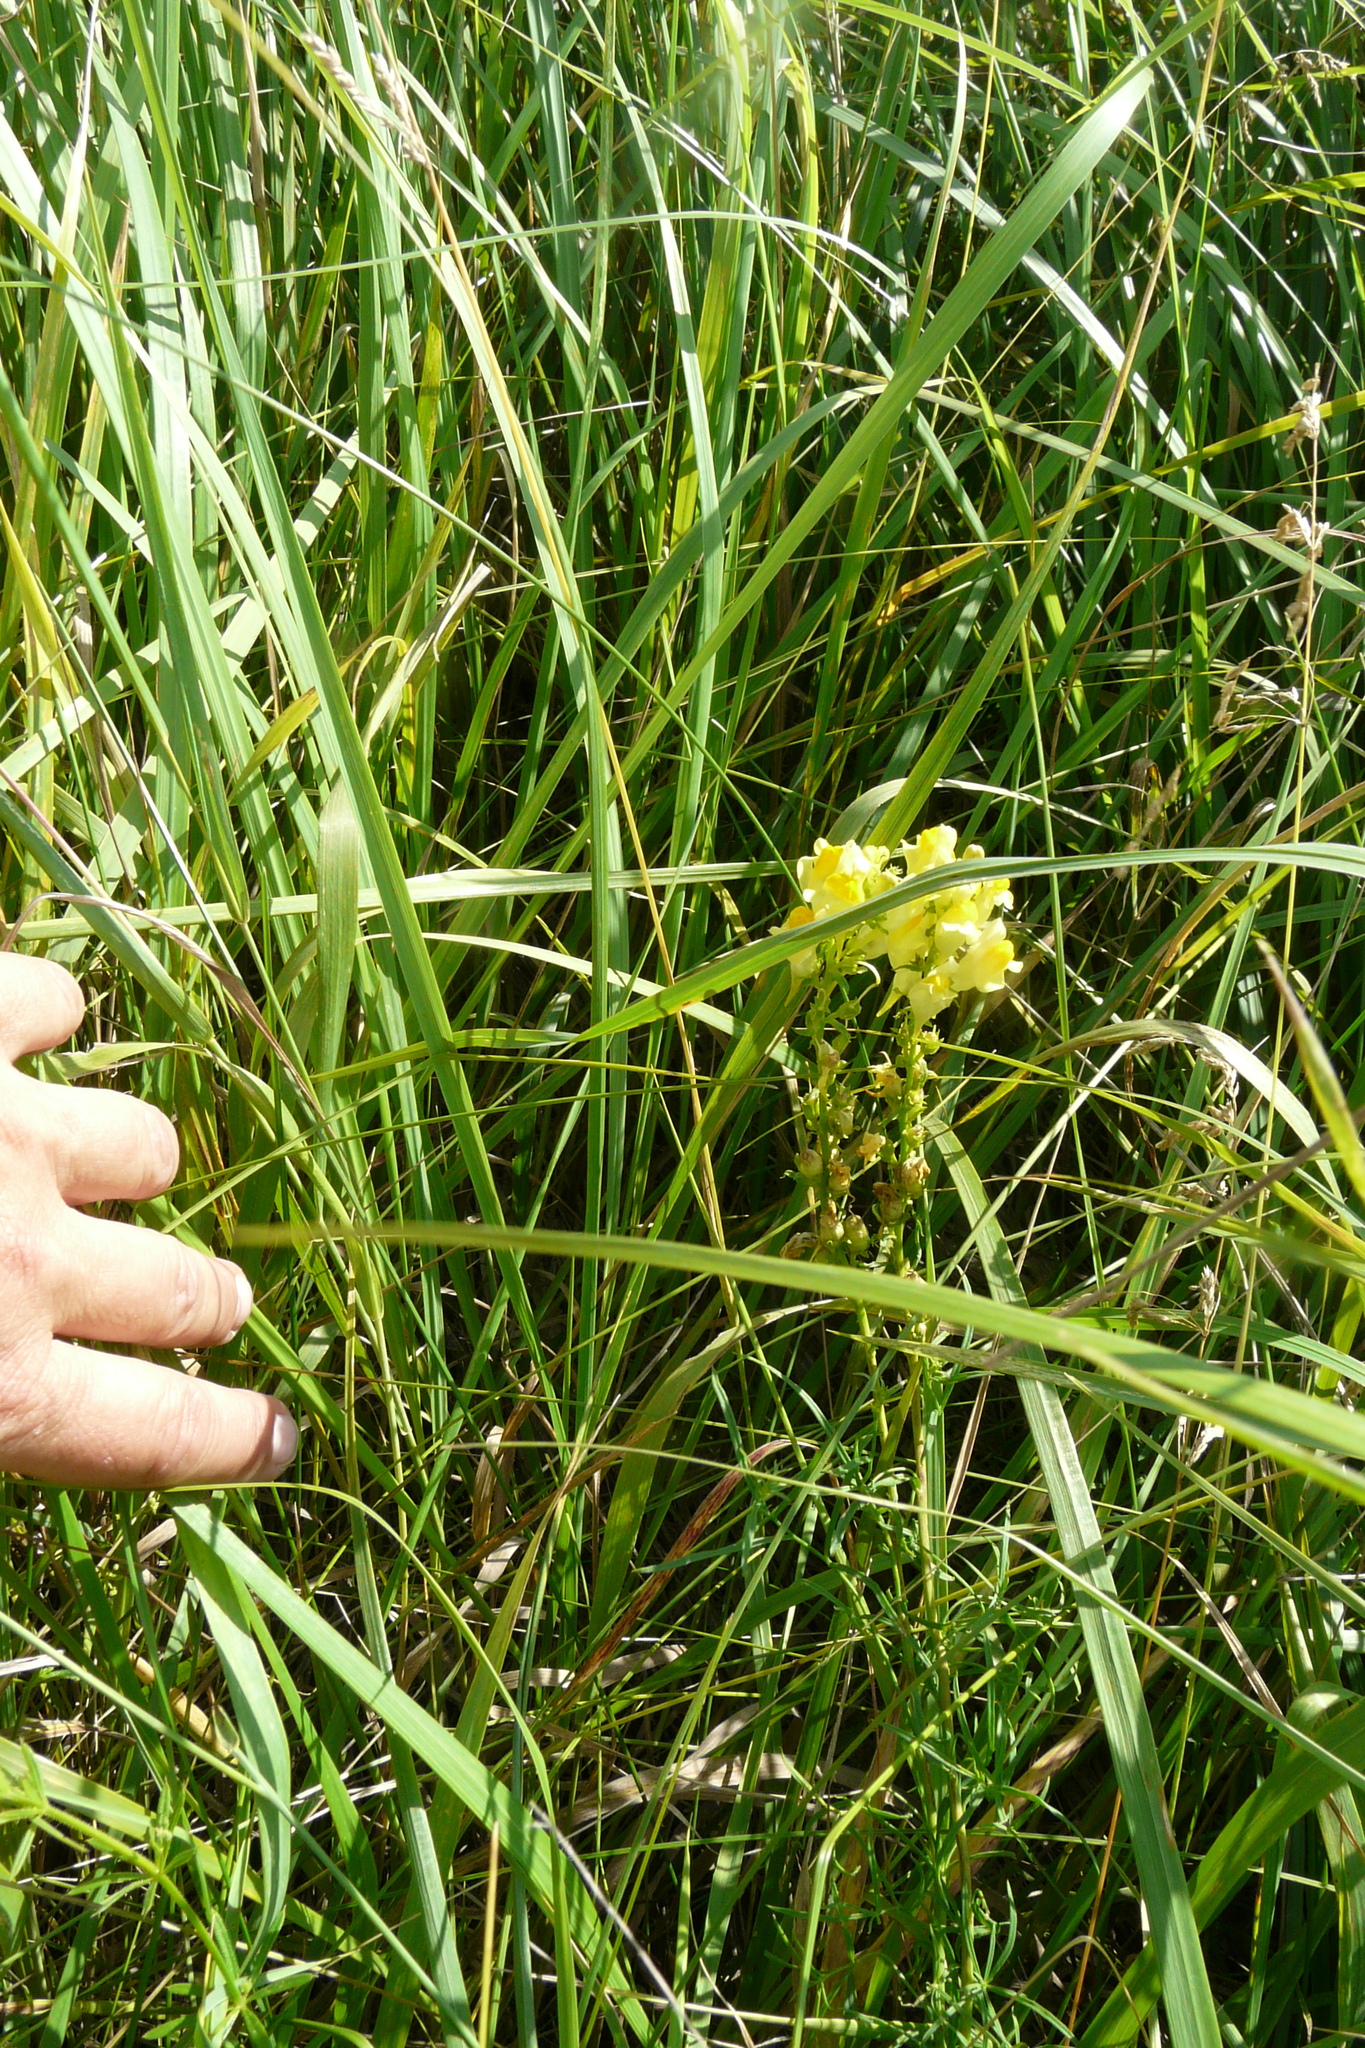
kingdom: Plantae
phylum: Tracheophyta
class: Magnoliopsida
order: Lamiales
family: Plantaginaceae
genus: Linaria
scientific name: Linaria vulgaris
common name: Butter and eggs
